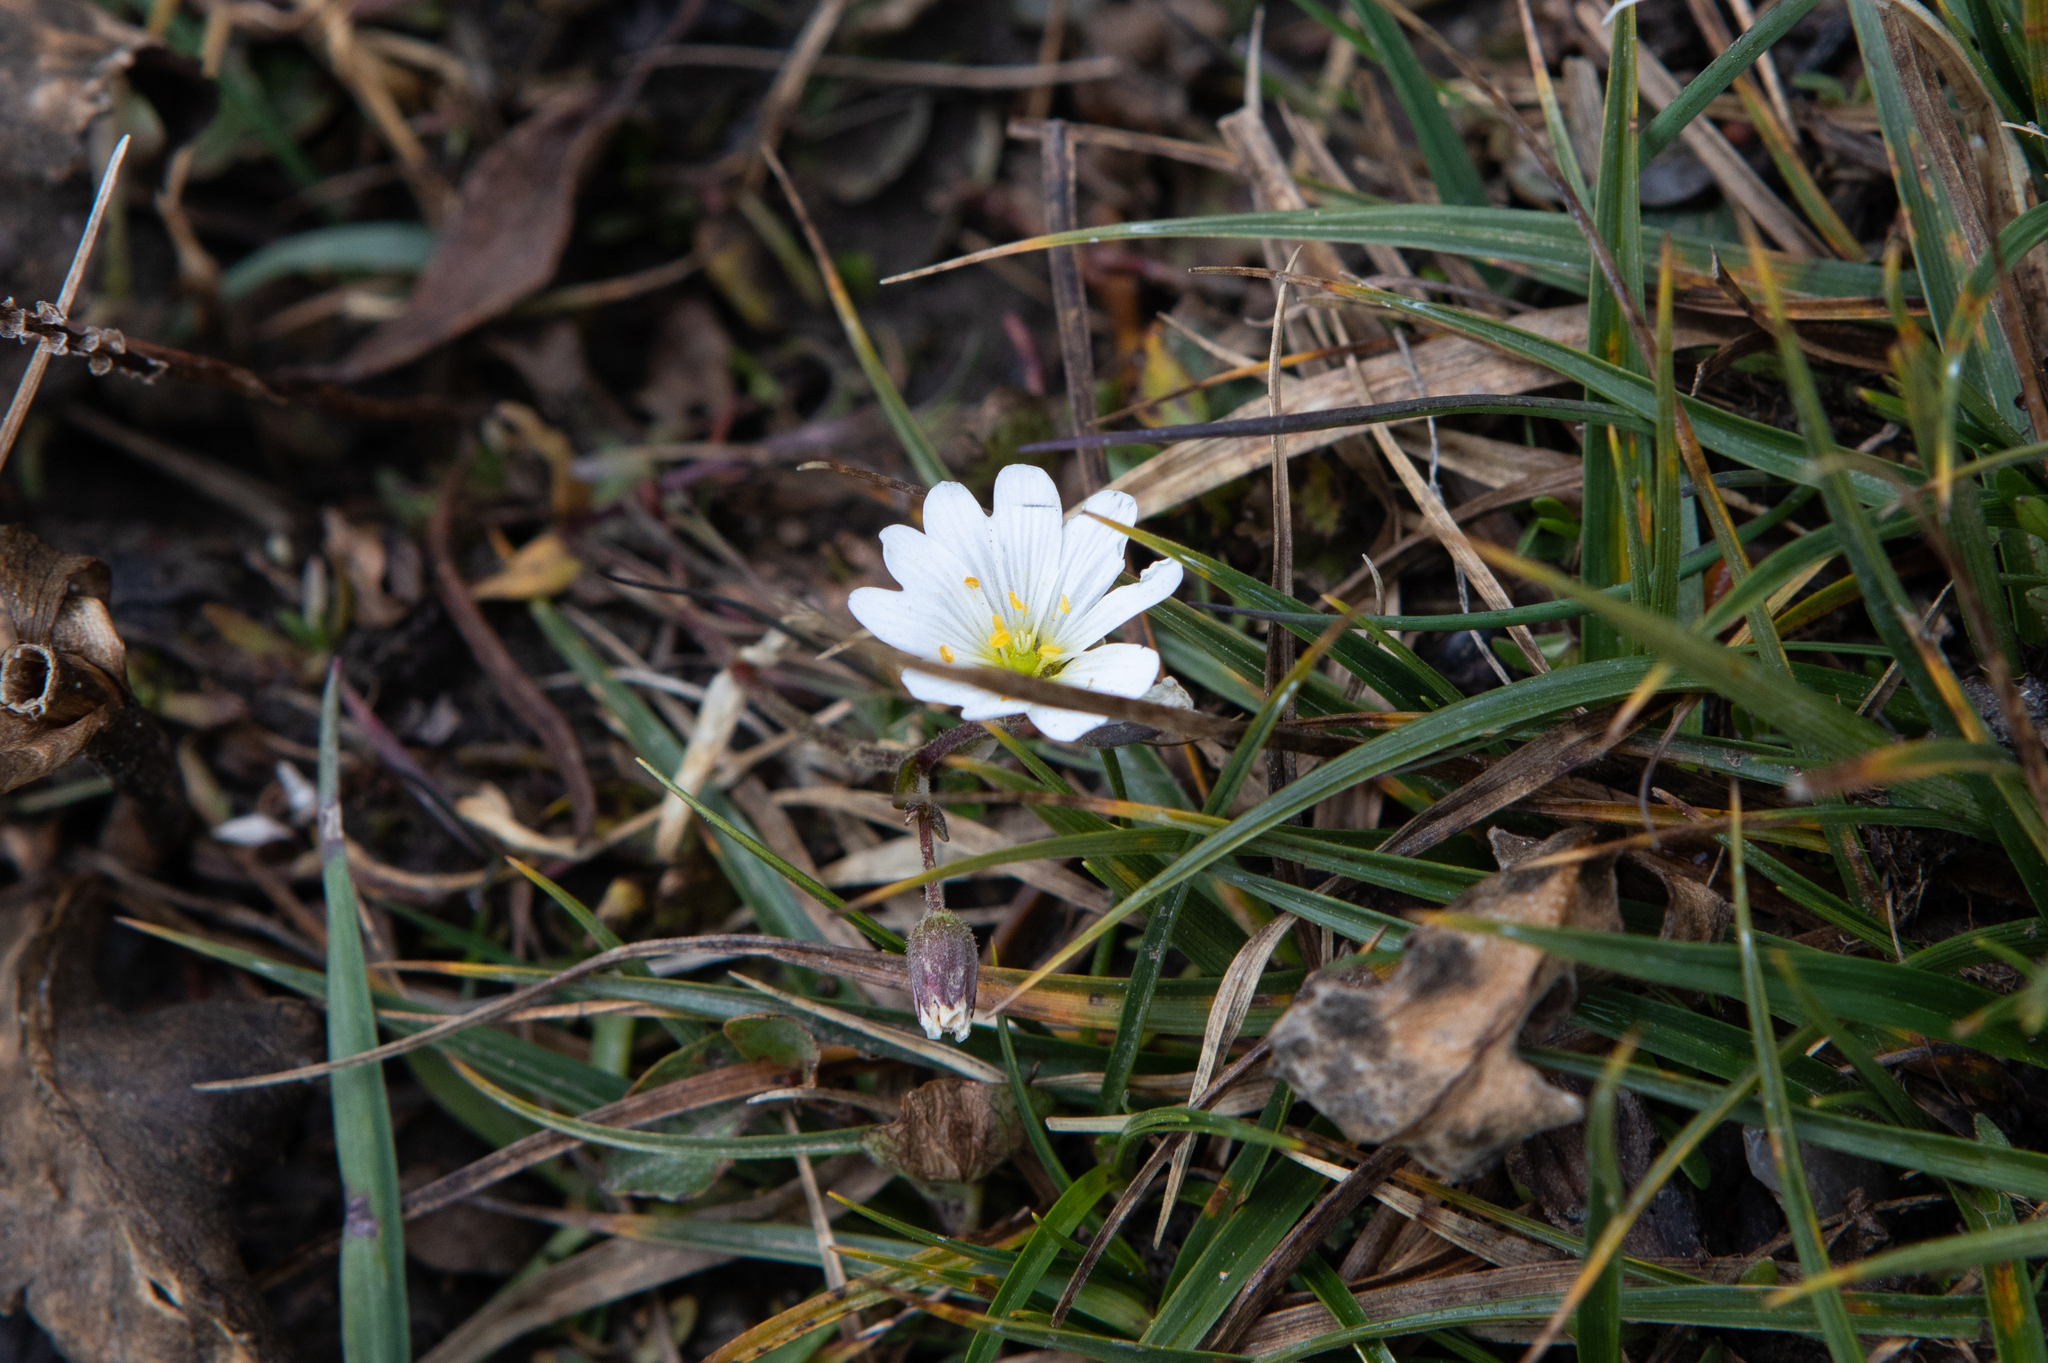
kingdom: Plantae
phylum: Tracheophyta
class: Magnoliopsida
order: Caryophyllales
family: Caryophyllaceae
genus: Dichodon
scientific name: Dichodon cerastoides
